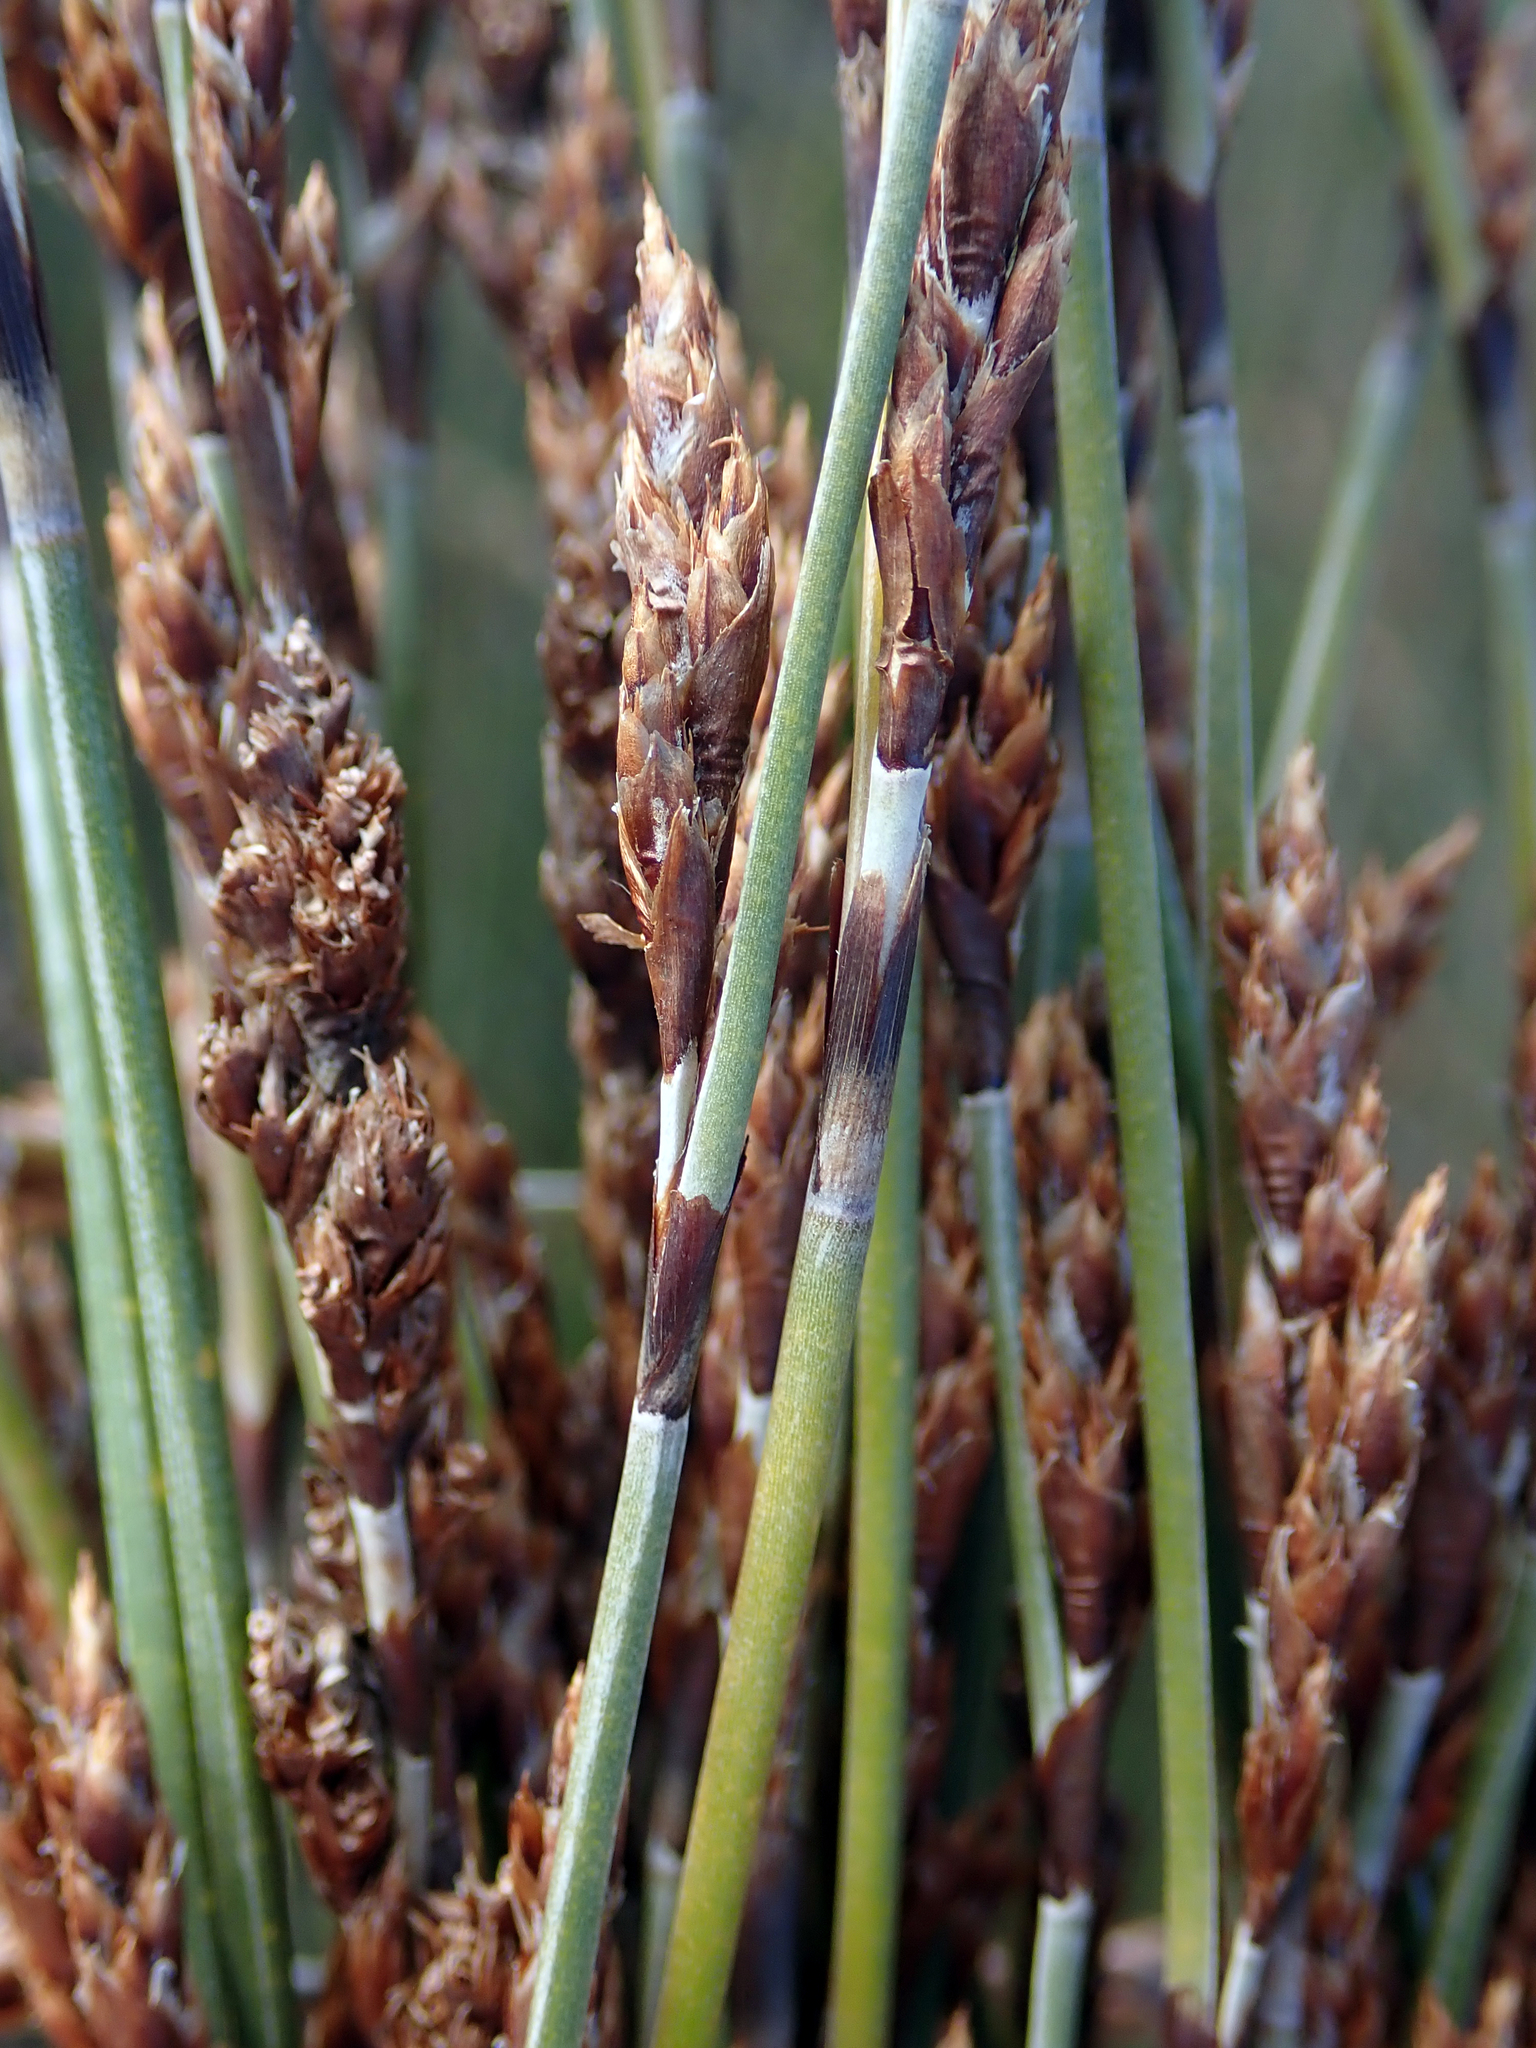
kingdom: Plantae
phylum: Tracheophyta
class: Liliopsida
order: Poales
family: Restionaceae
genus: Apodasmia
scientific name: Apodasmia similis
